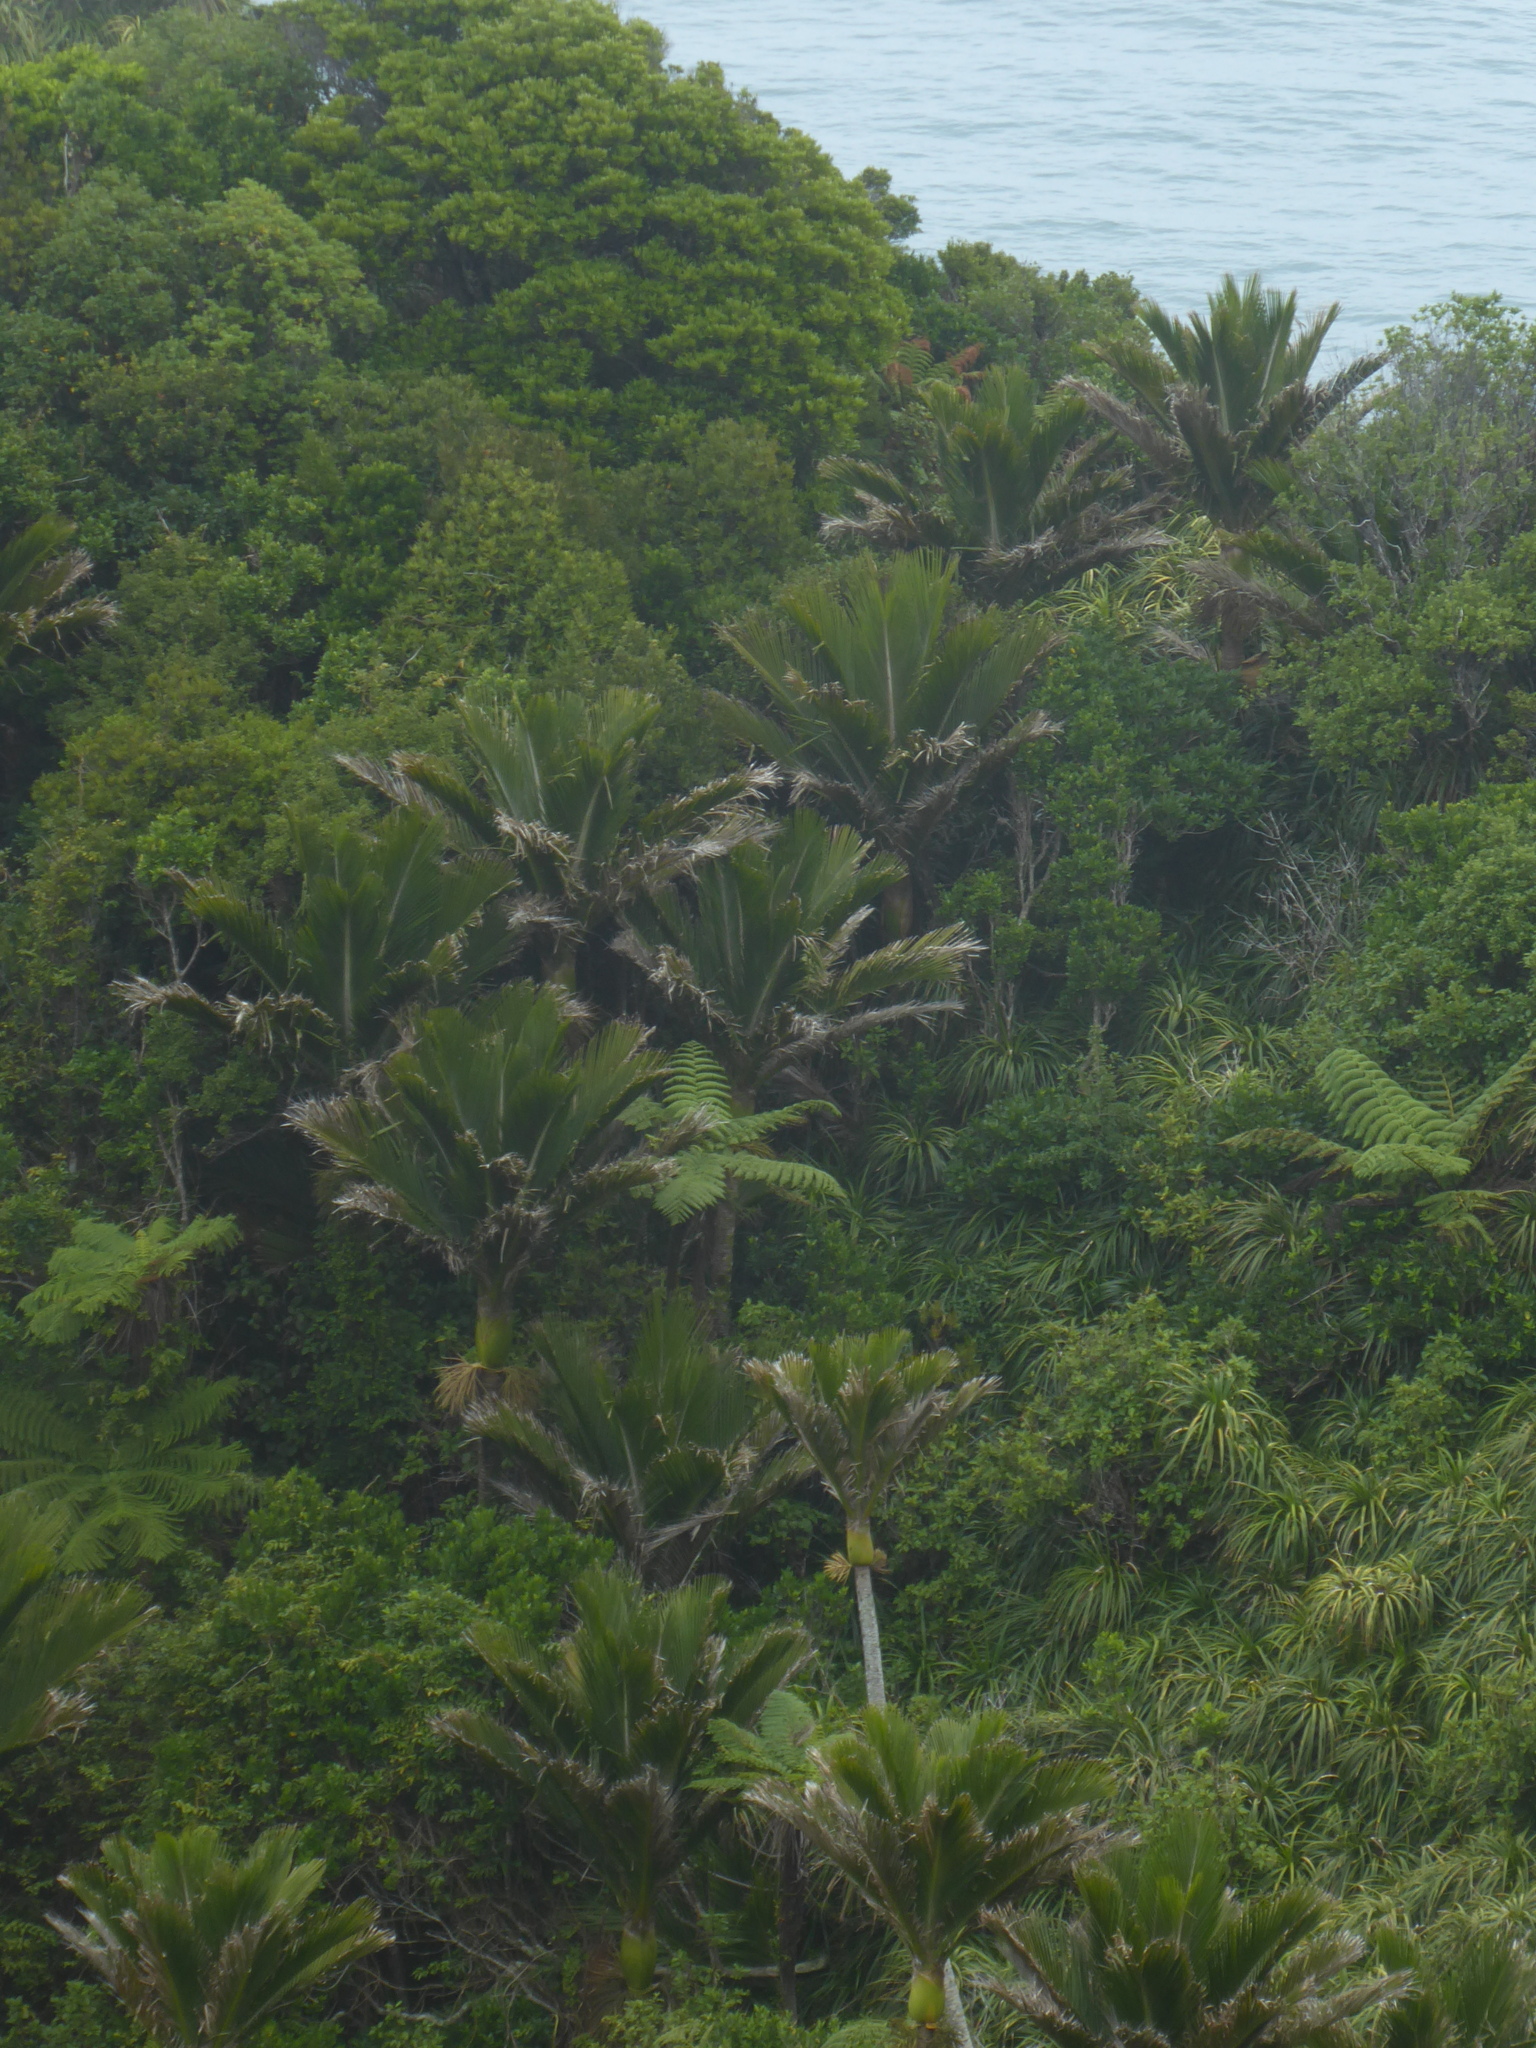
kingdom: Plantae
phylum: Tracheophyta
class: Liliopsida
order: Arecales
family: Arecaceae
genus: Rhopalostylis
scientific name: Rhopalostylis sapida
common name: Feather-duster palm
